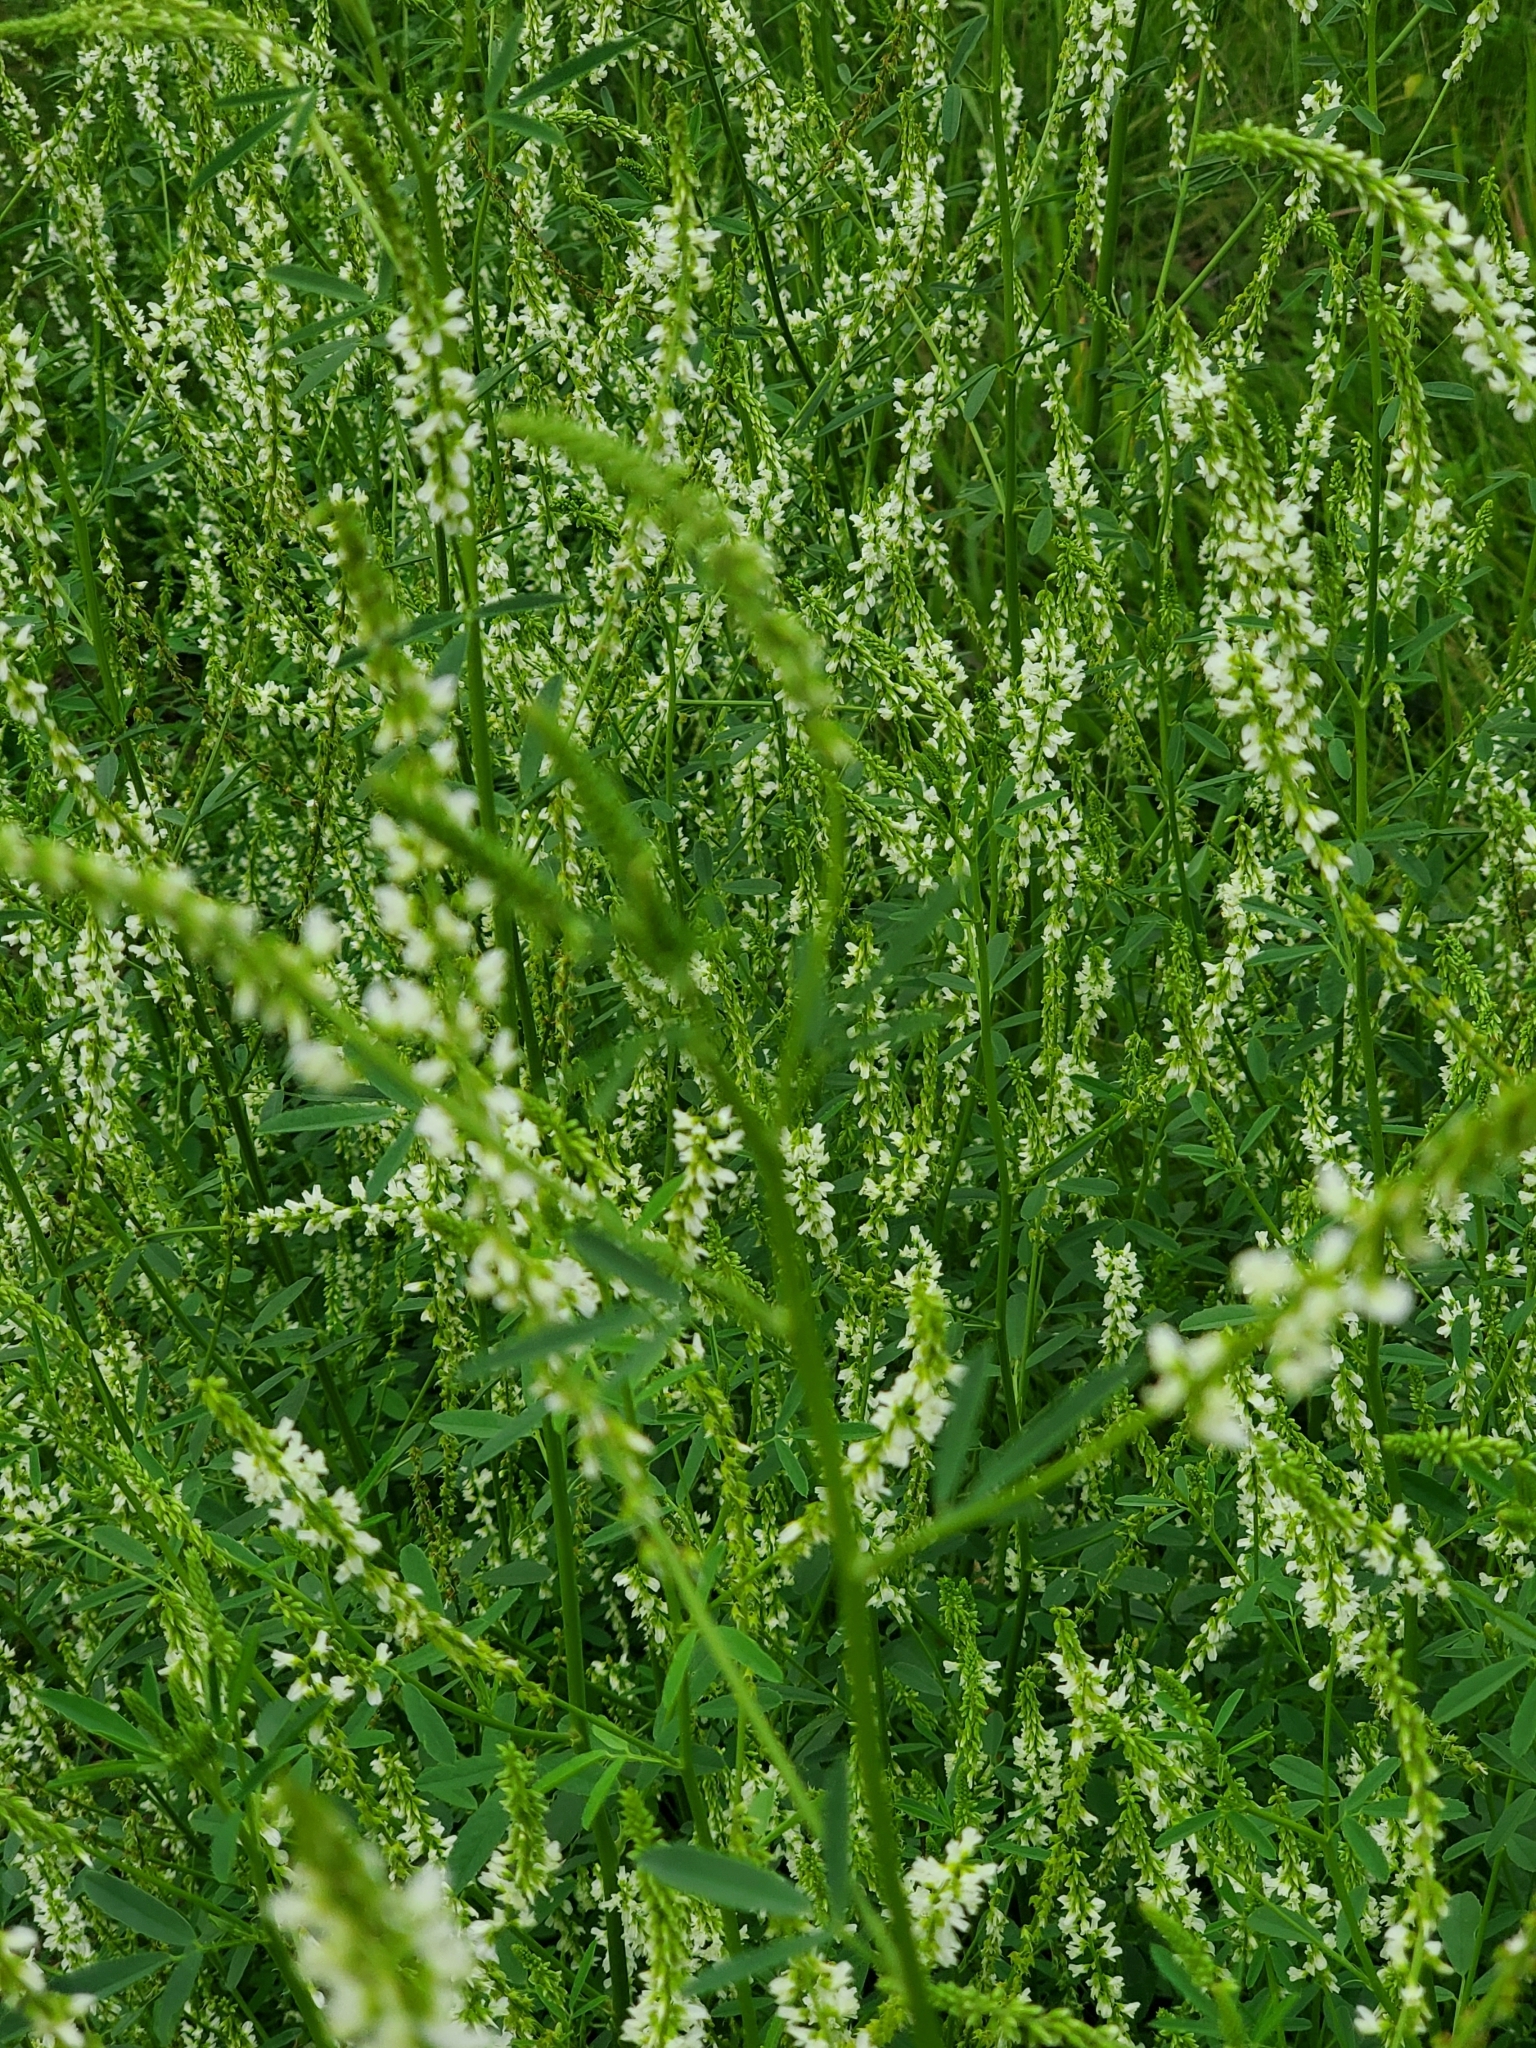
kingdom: Plantae
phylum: Tracheophyta
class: Magnoliopsida
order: Fabales
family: Fabaceae
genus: Melilotus
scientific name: Melilotus albus
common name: White melilot
